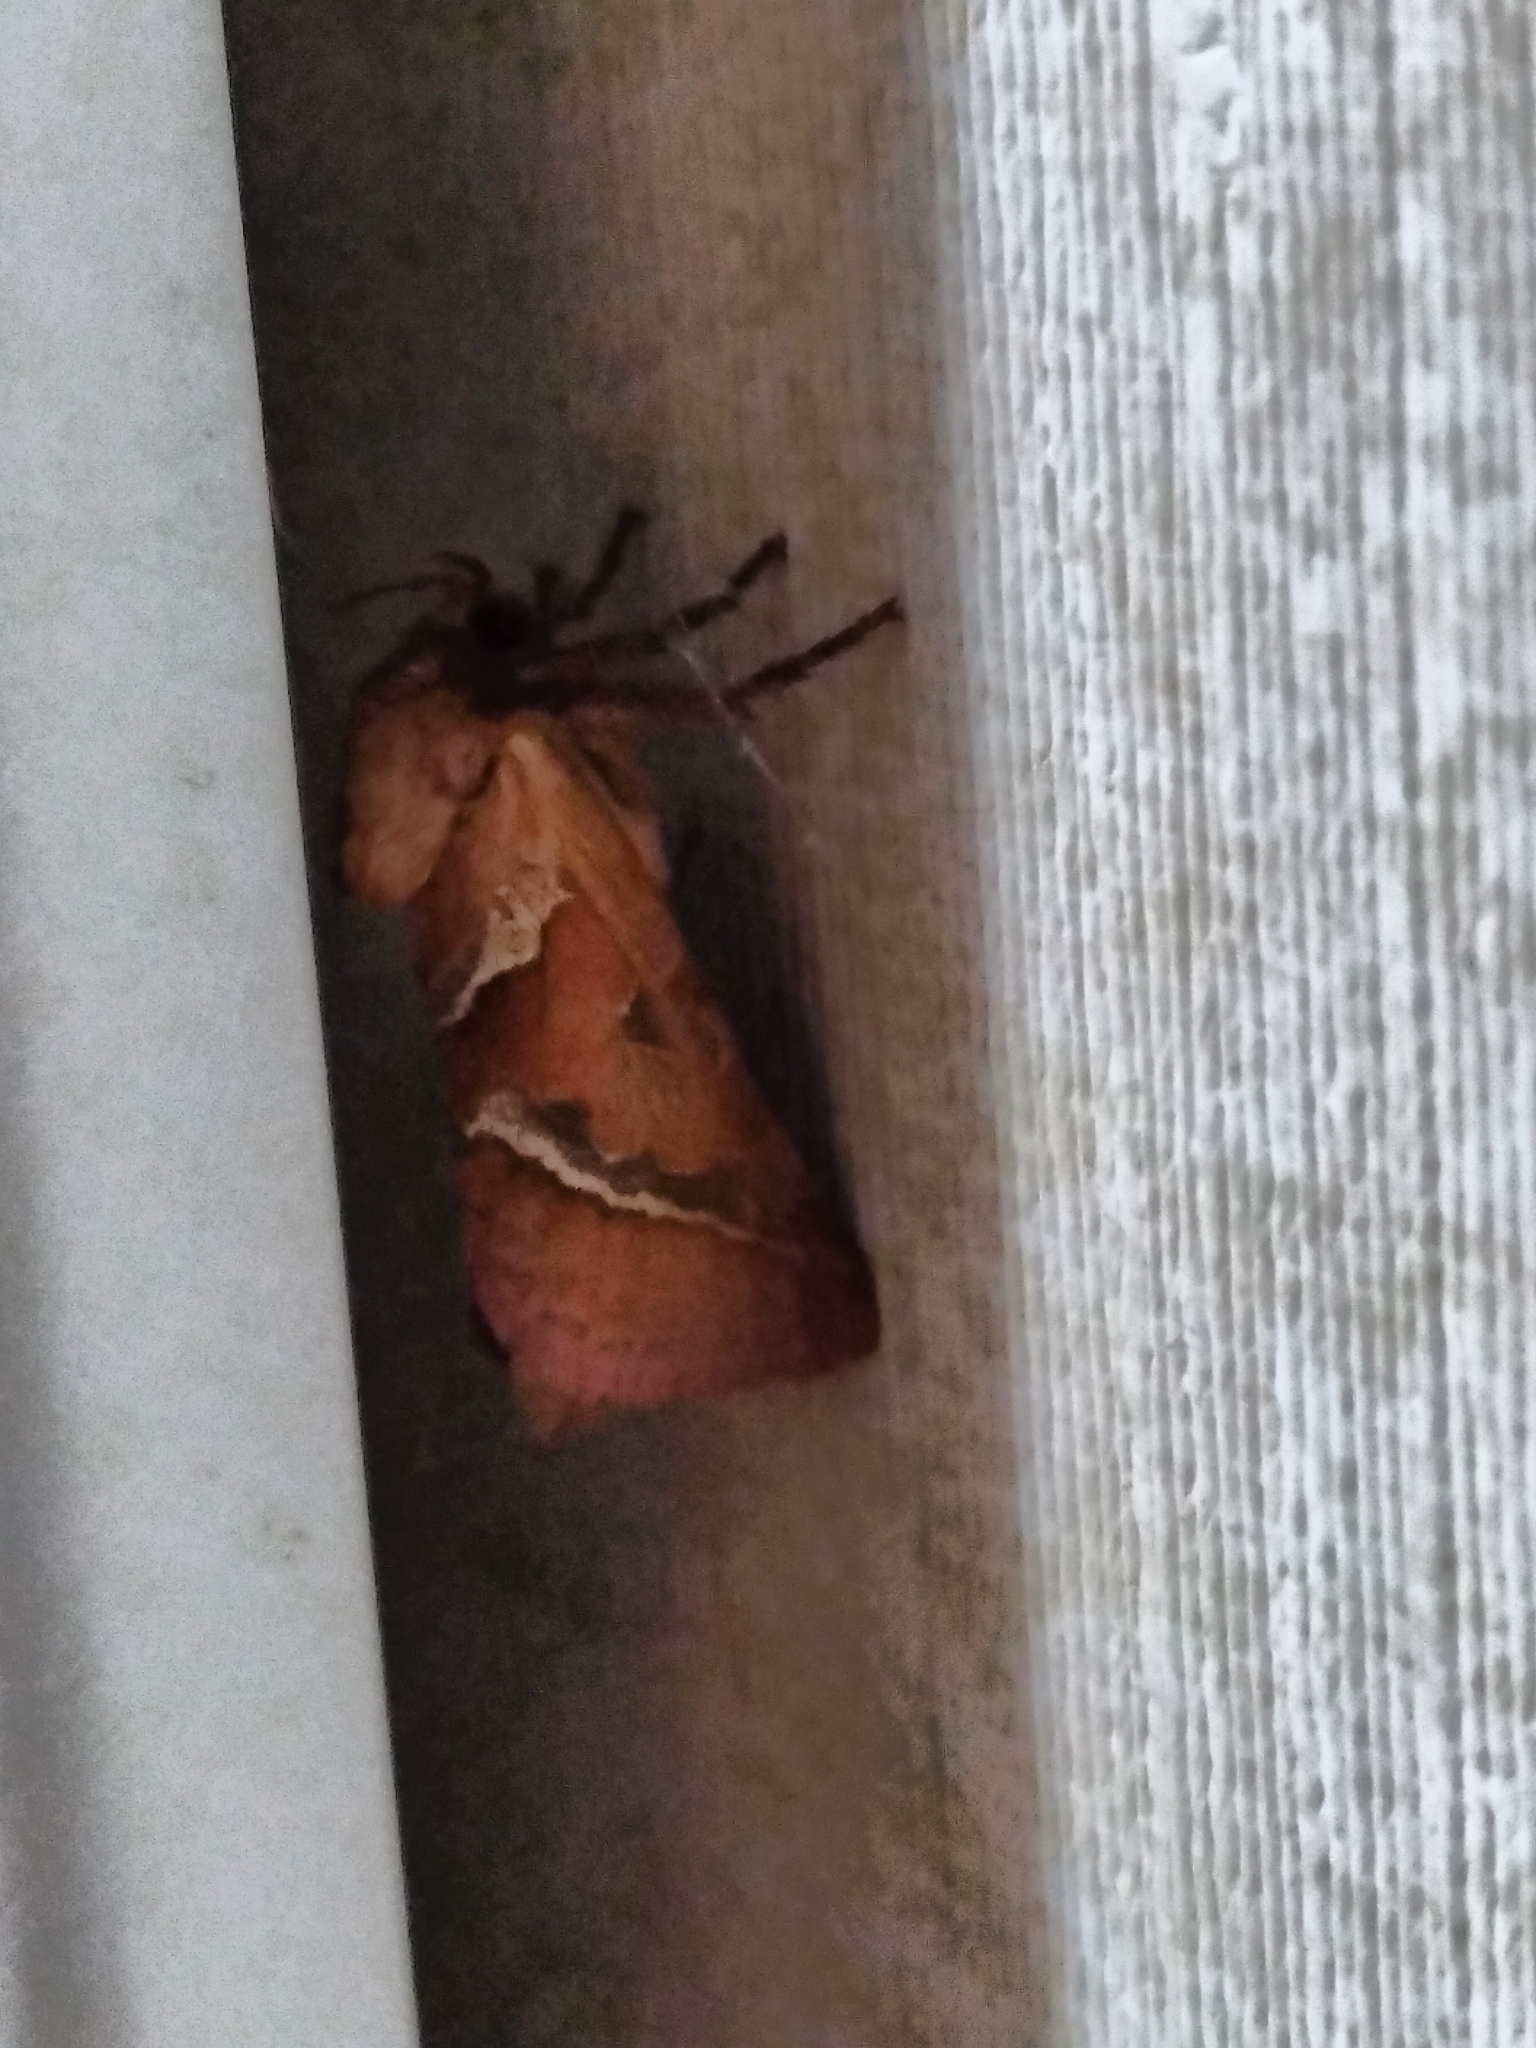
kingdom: Animalia
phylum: Arthropoda
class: Insecta
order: Lepidoptera
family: Hepialidae
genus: Triodia
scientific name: Triodia sylvina
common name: Orange swift
